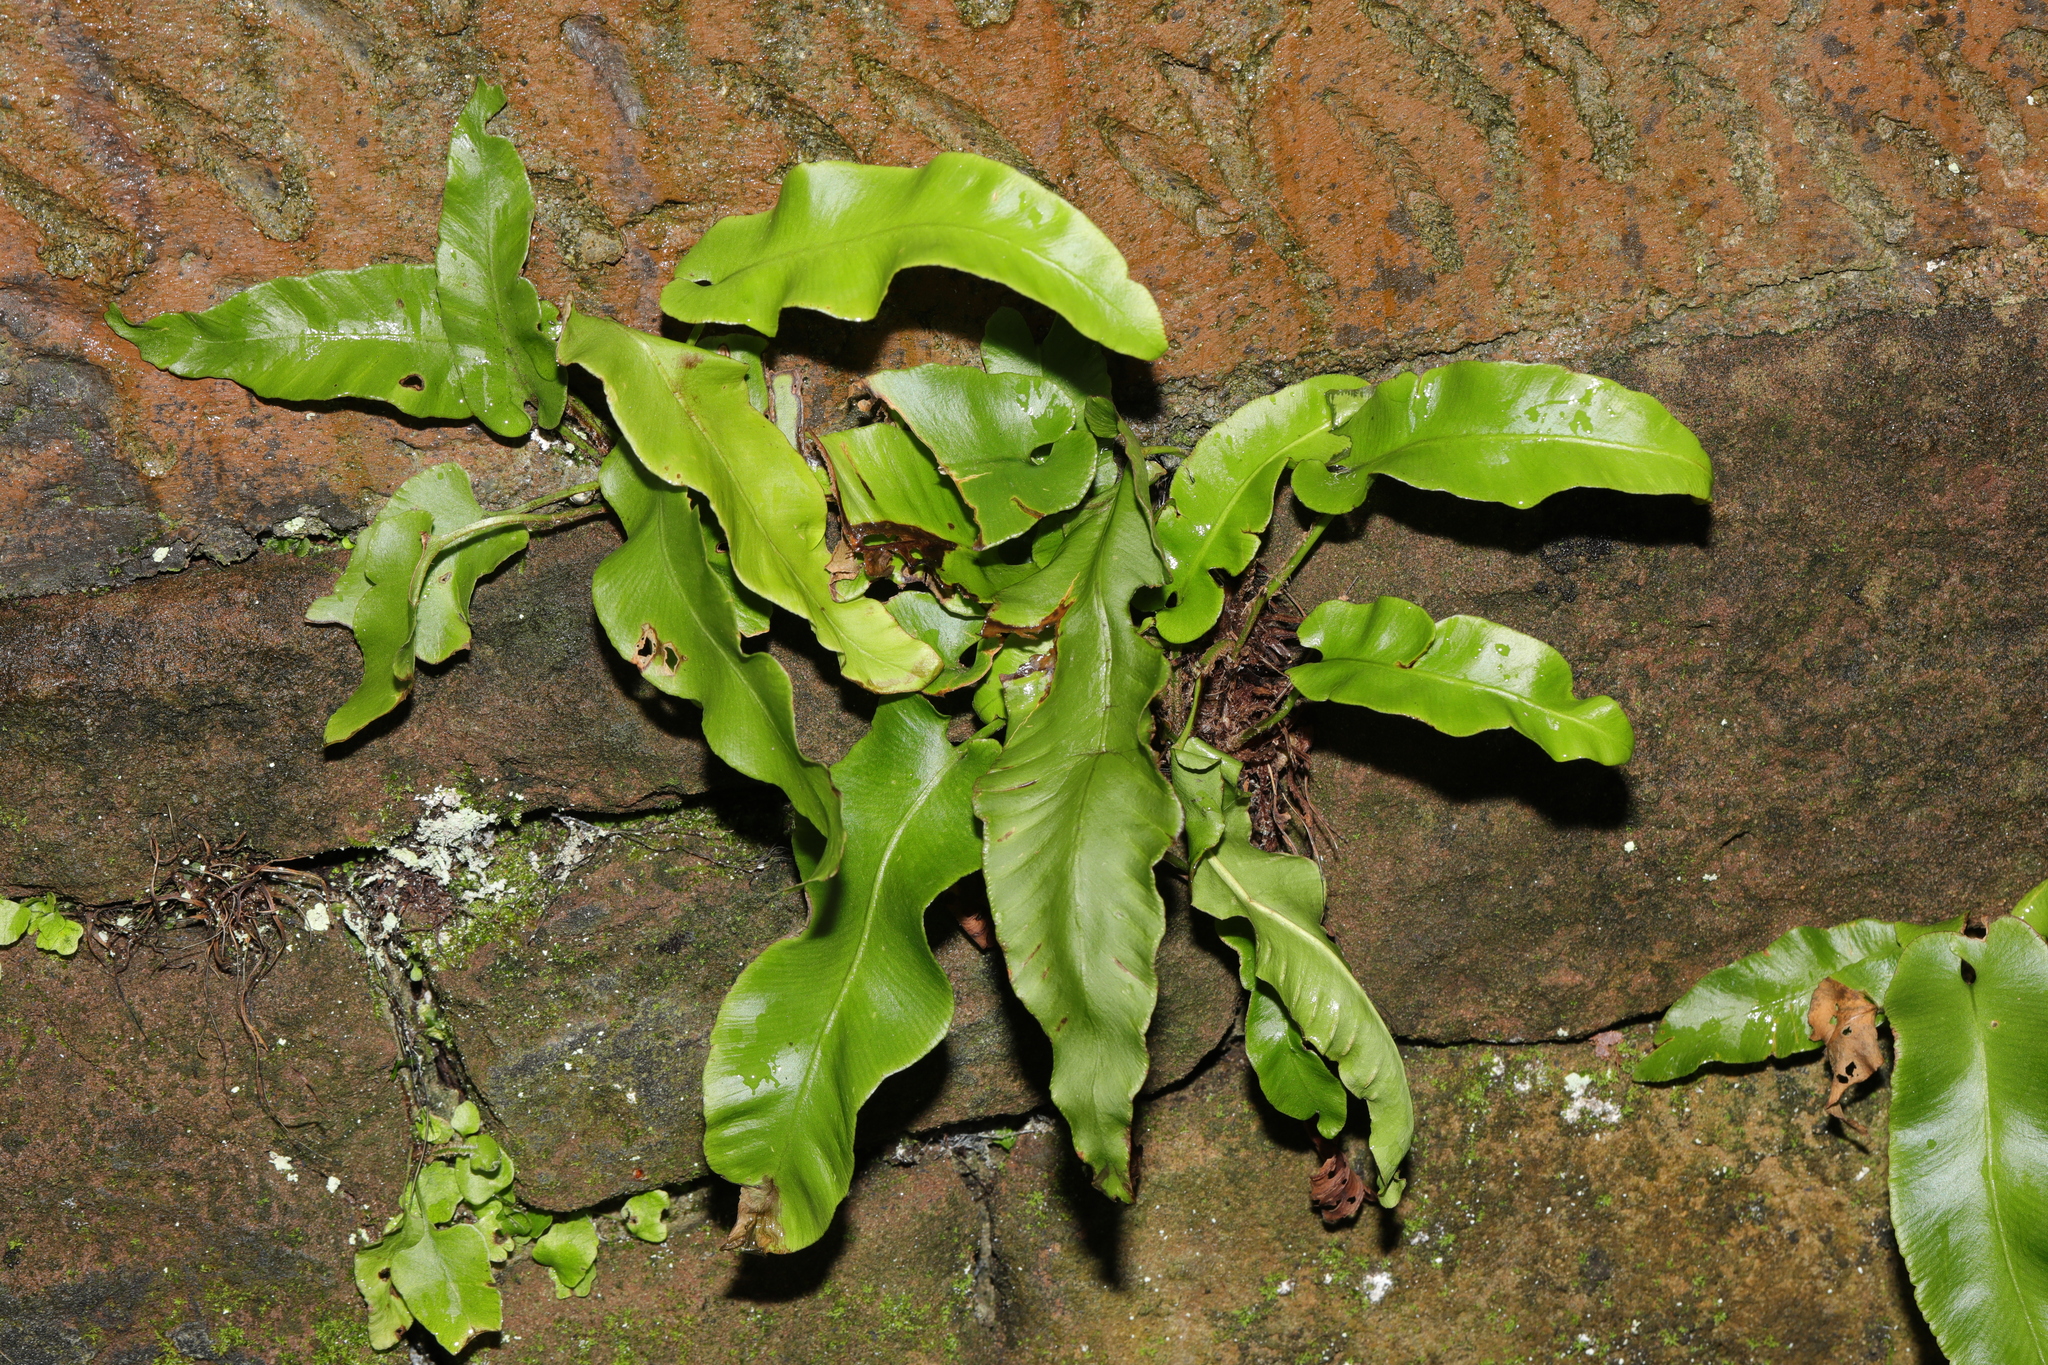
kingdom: Plantae
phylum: Tracheophyta
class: Polypodiopsida
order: Polypodiales
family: Aspleniaceae
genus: Asplenium
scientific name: Asplenium scolopendrium
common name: Hart's-tongue fern
